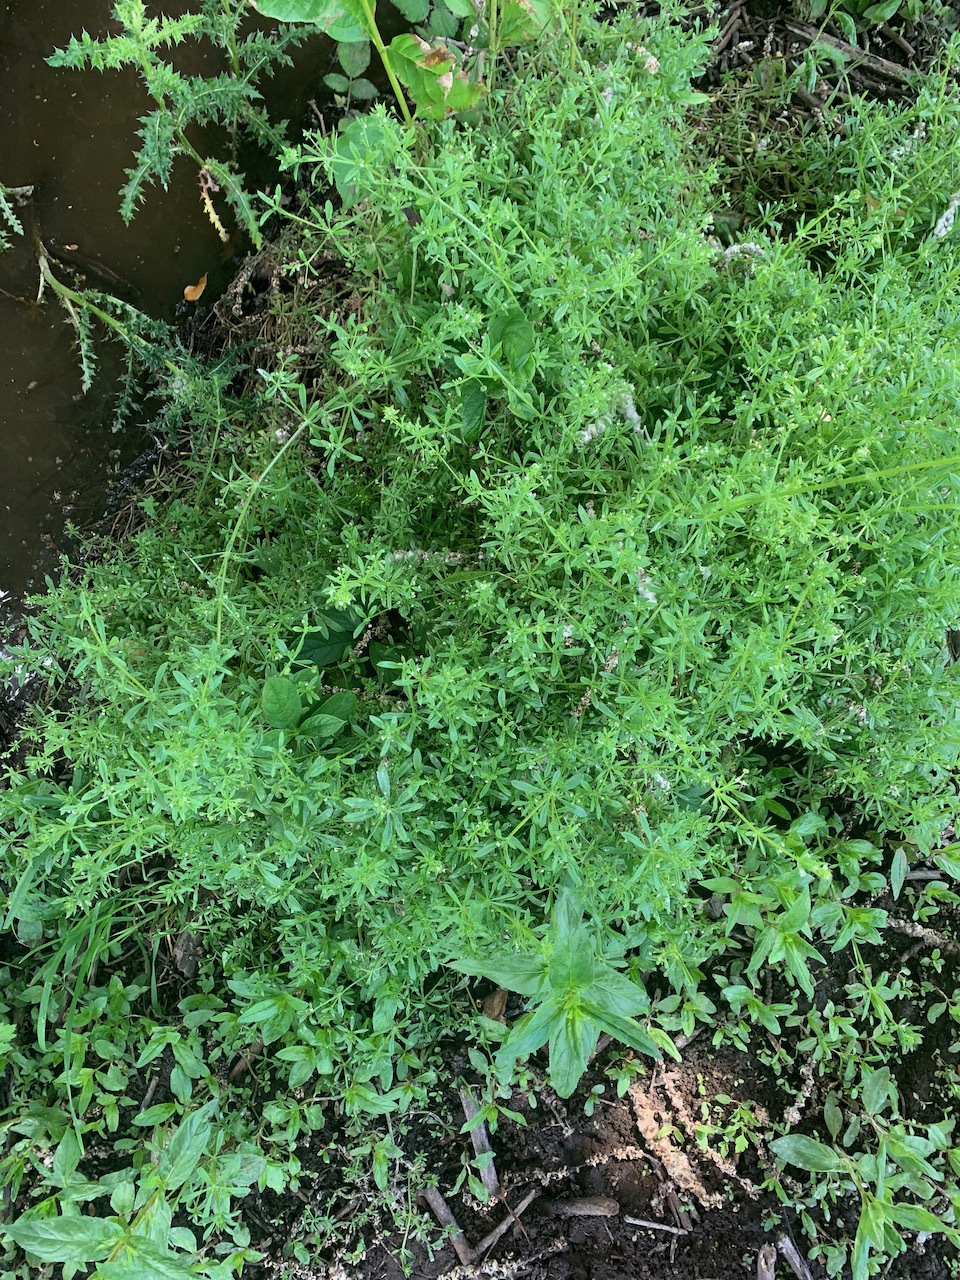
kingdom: Plantae
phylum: Tracheophyta
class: Magnoliopsida
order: Gentianales
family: Rubiaceae
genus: Galium
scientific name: Galium aparine
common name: Cleavers
